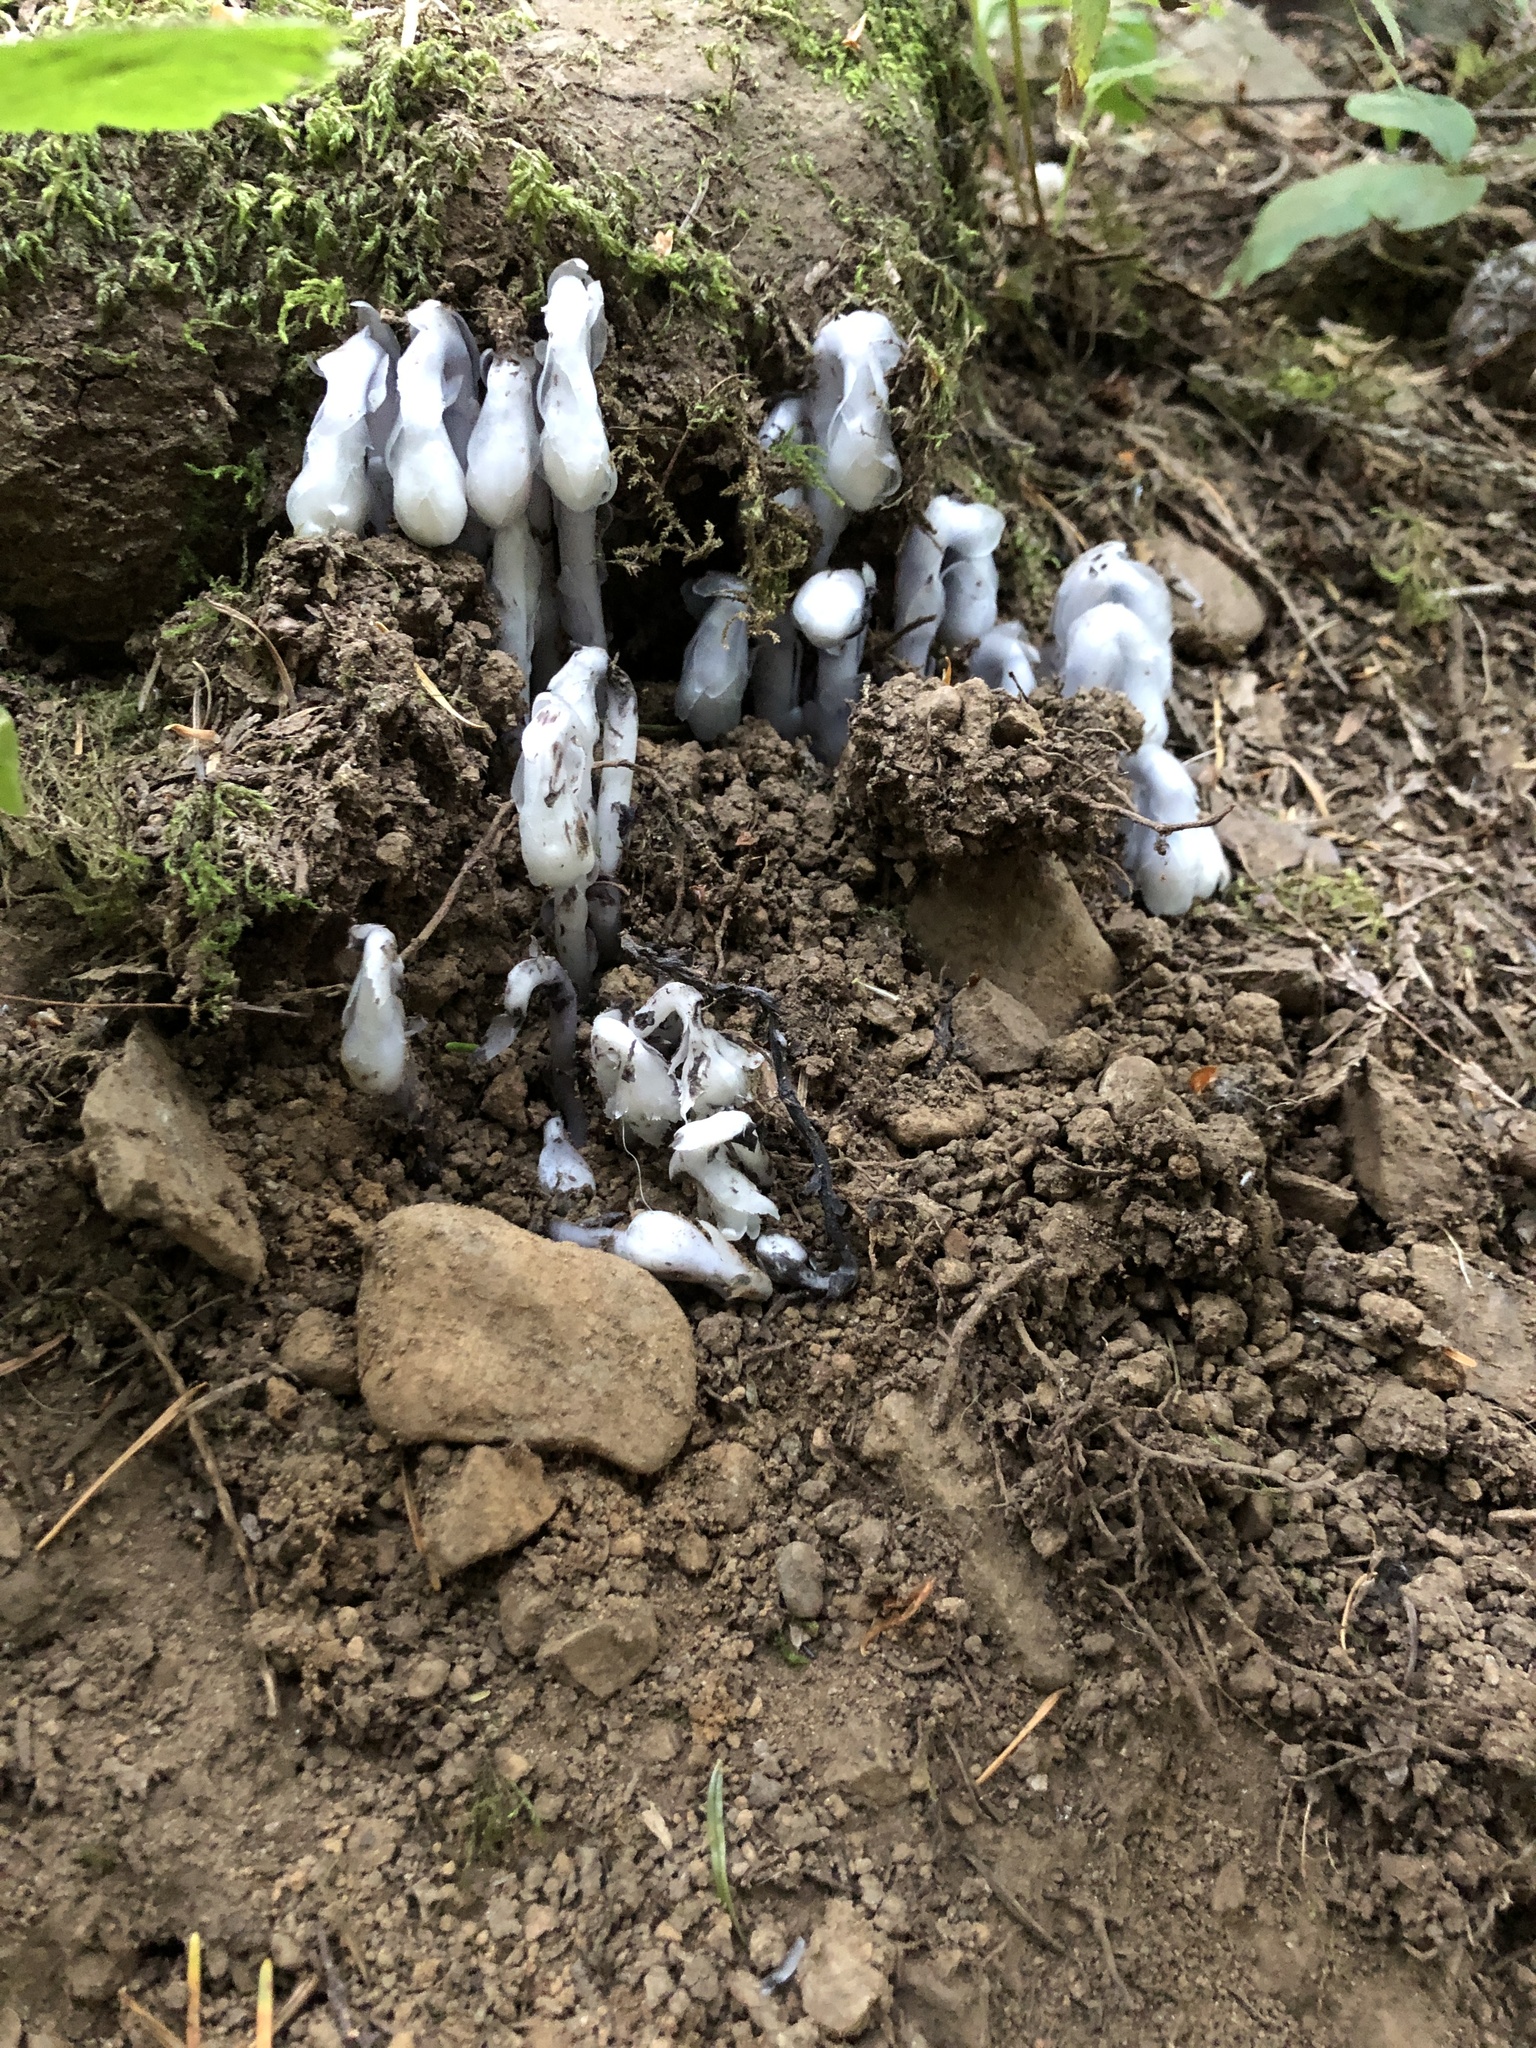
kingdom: Plantae
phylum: Tracheophyta
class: Magnoliopsida
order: Ericales
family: Ericaceae
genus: Monotropa
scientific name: Monotropa uniflora
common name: Convulsion root
